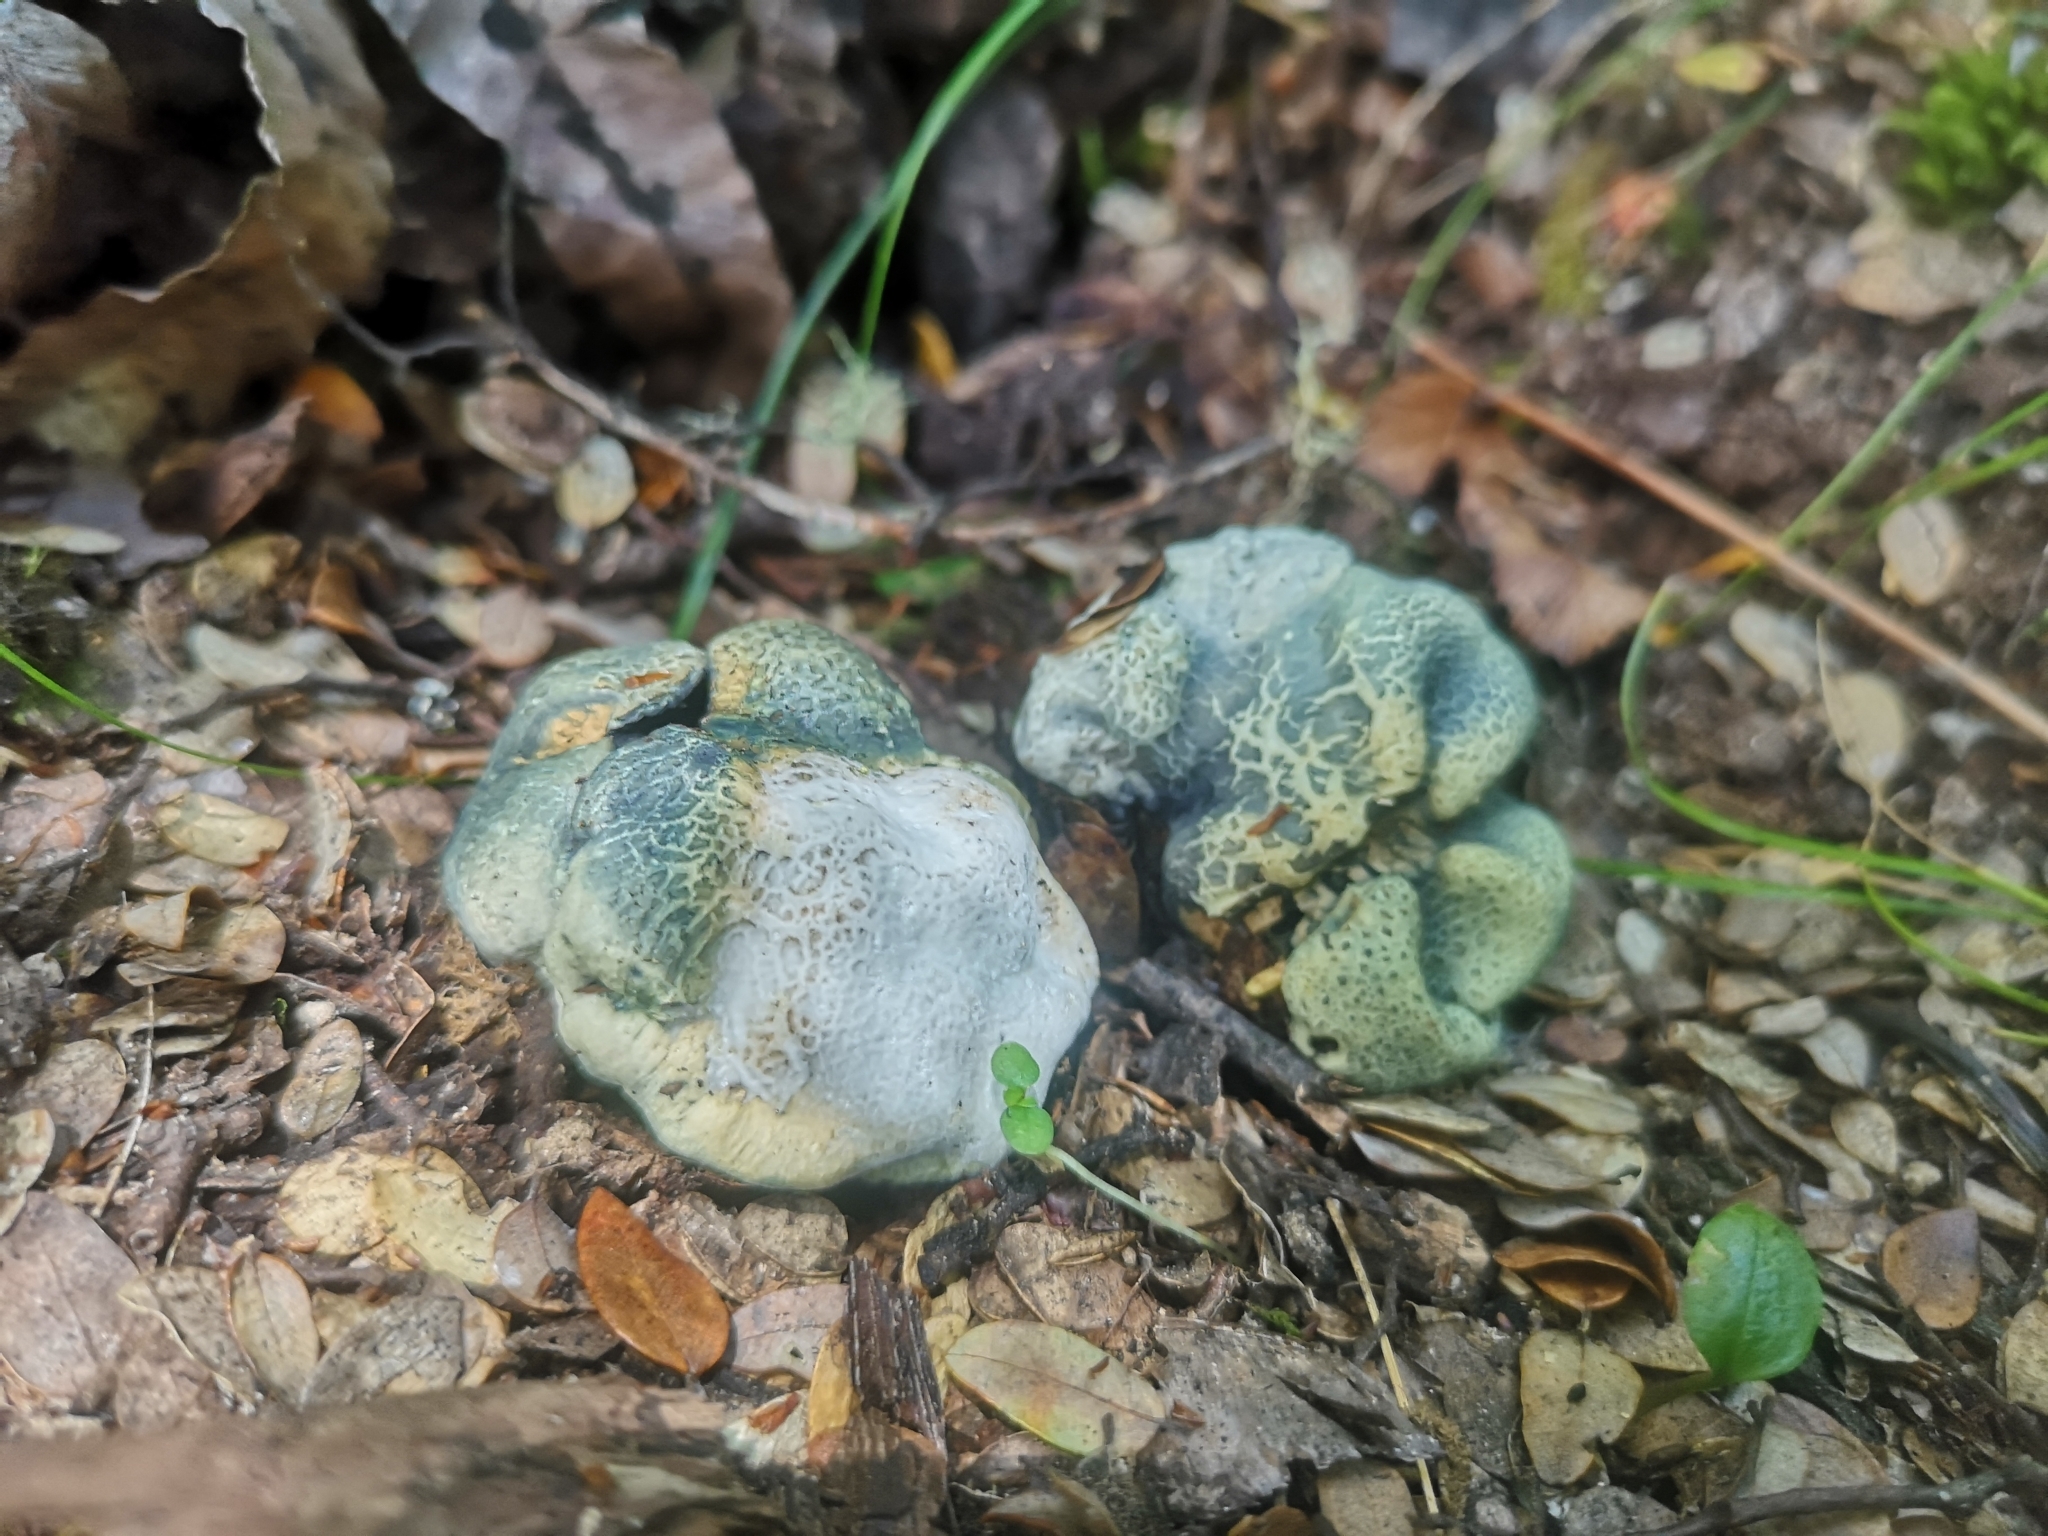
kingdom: Fungi
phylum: Basidiomycota
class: Agaricomycetes
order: Boletales
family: Boletaceae
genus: Leccinum
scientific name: Leccinum pachyderme
